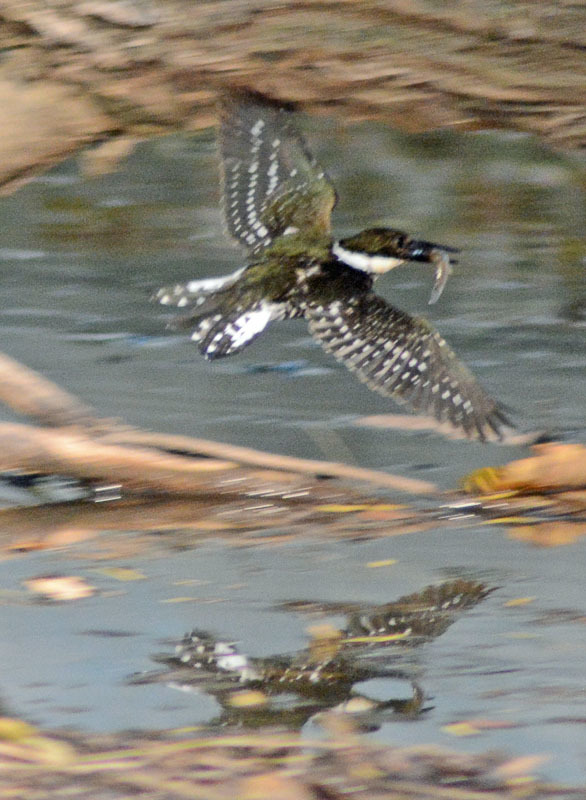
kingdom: Animalia
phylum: Chordata
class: Aves
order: Coraciiformes
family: Alcedinidae
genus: Chloroceryle
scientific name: Chloroceryle americana
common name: Green kingfisher
